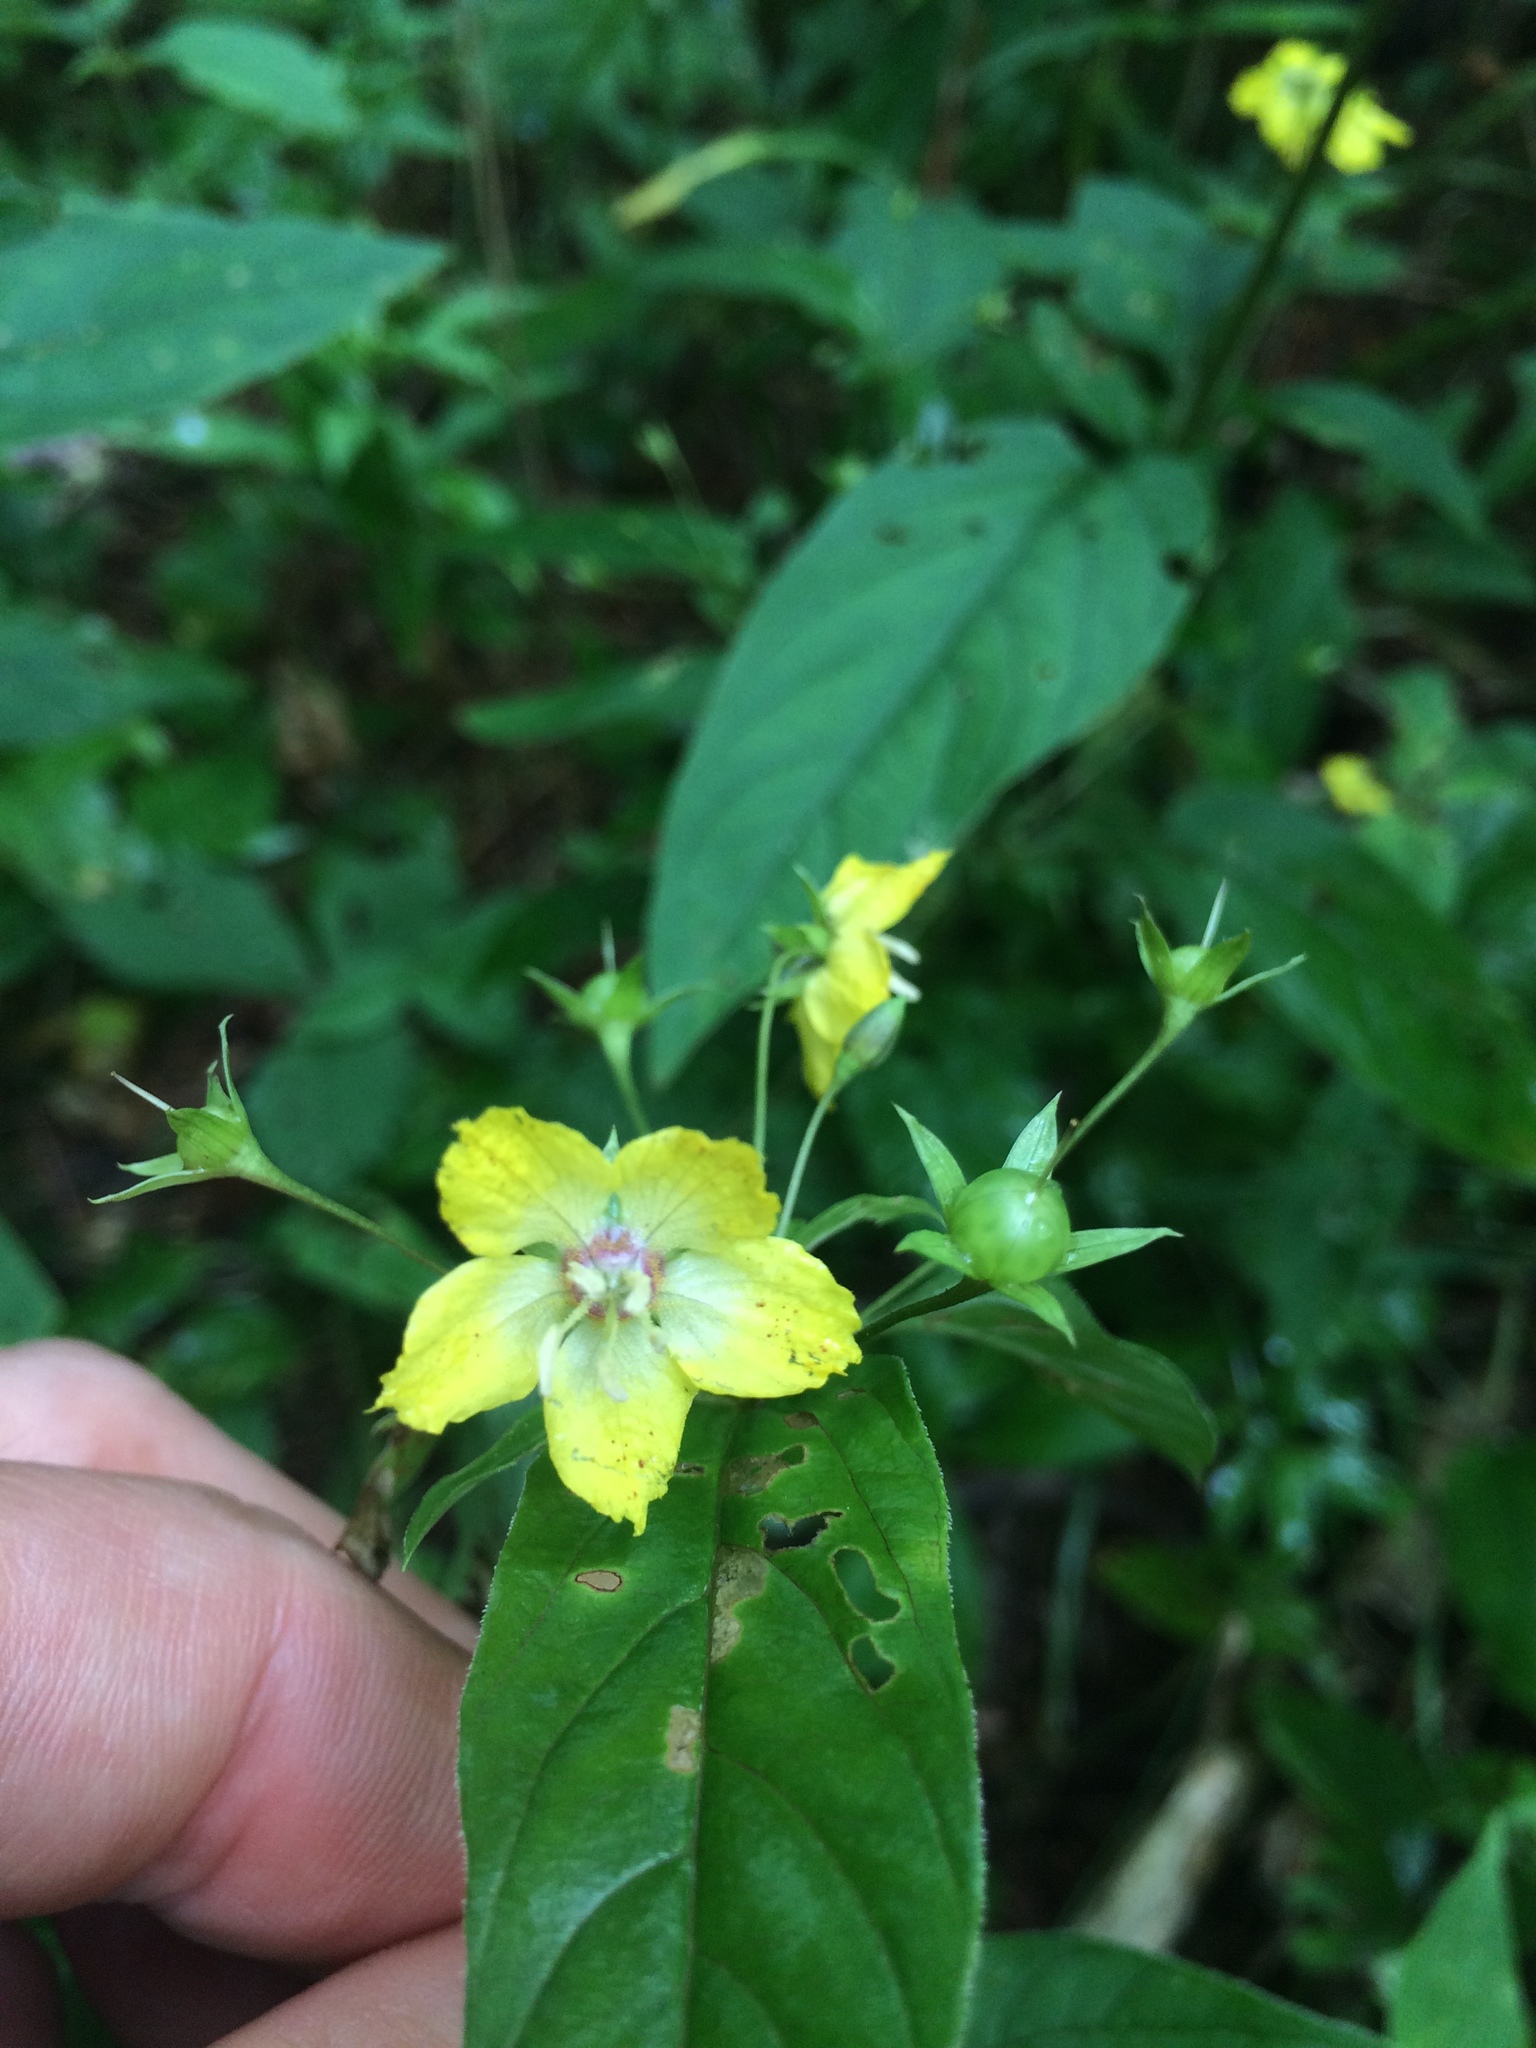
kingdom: Plantae
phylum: Tracheophyta
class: Magnoliopsida
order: Ericales
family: Primulaceae
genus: Lysimachia
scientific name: Lysimachia ciliata
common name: Fringed loosestrife
